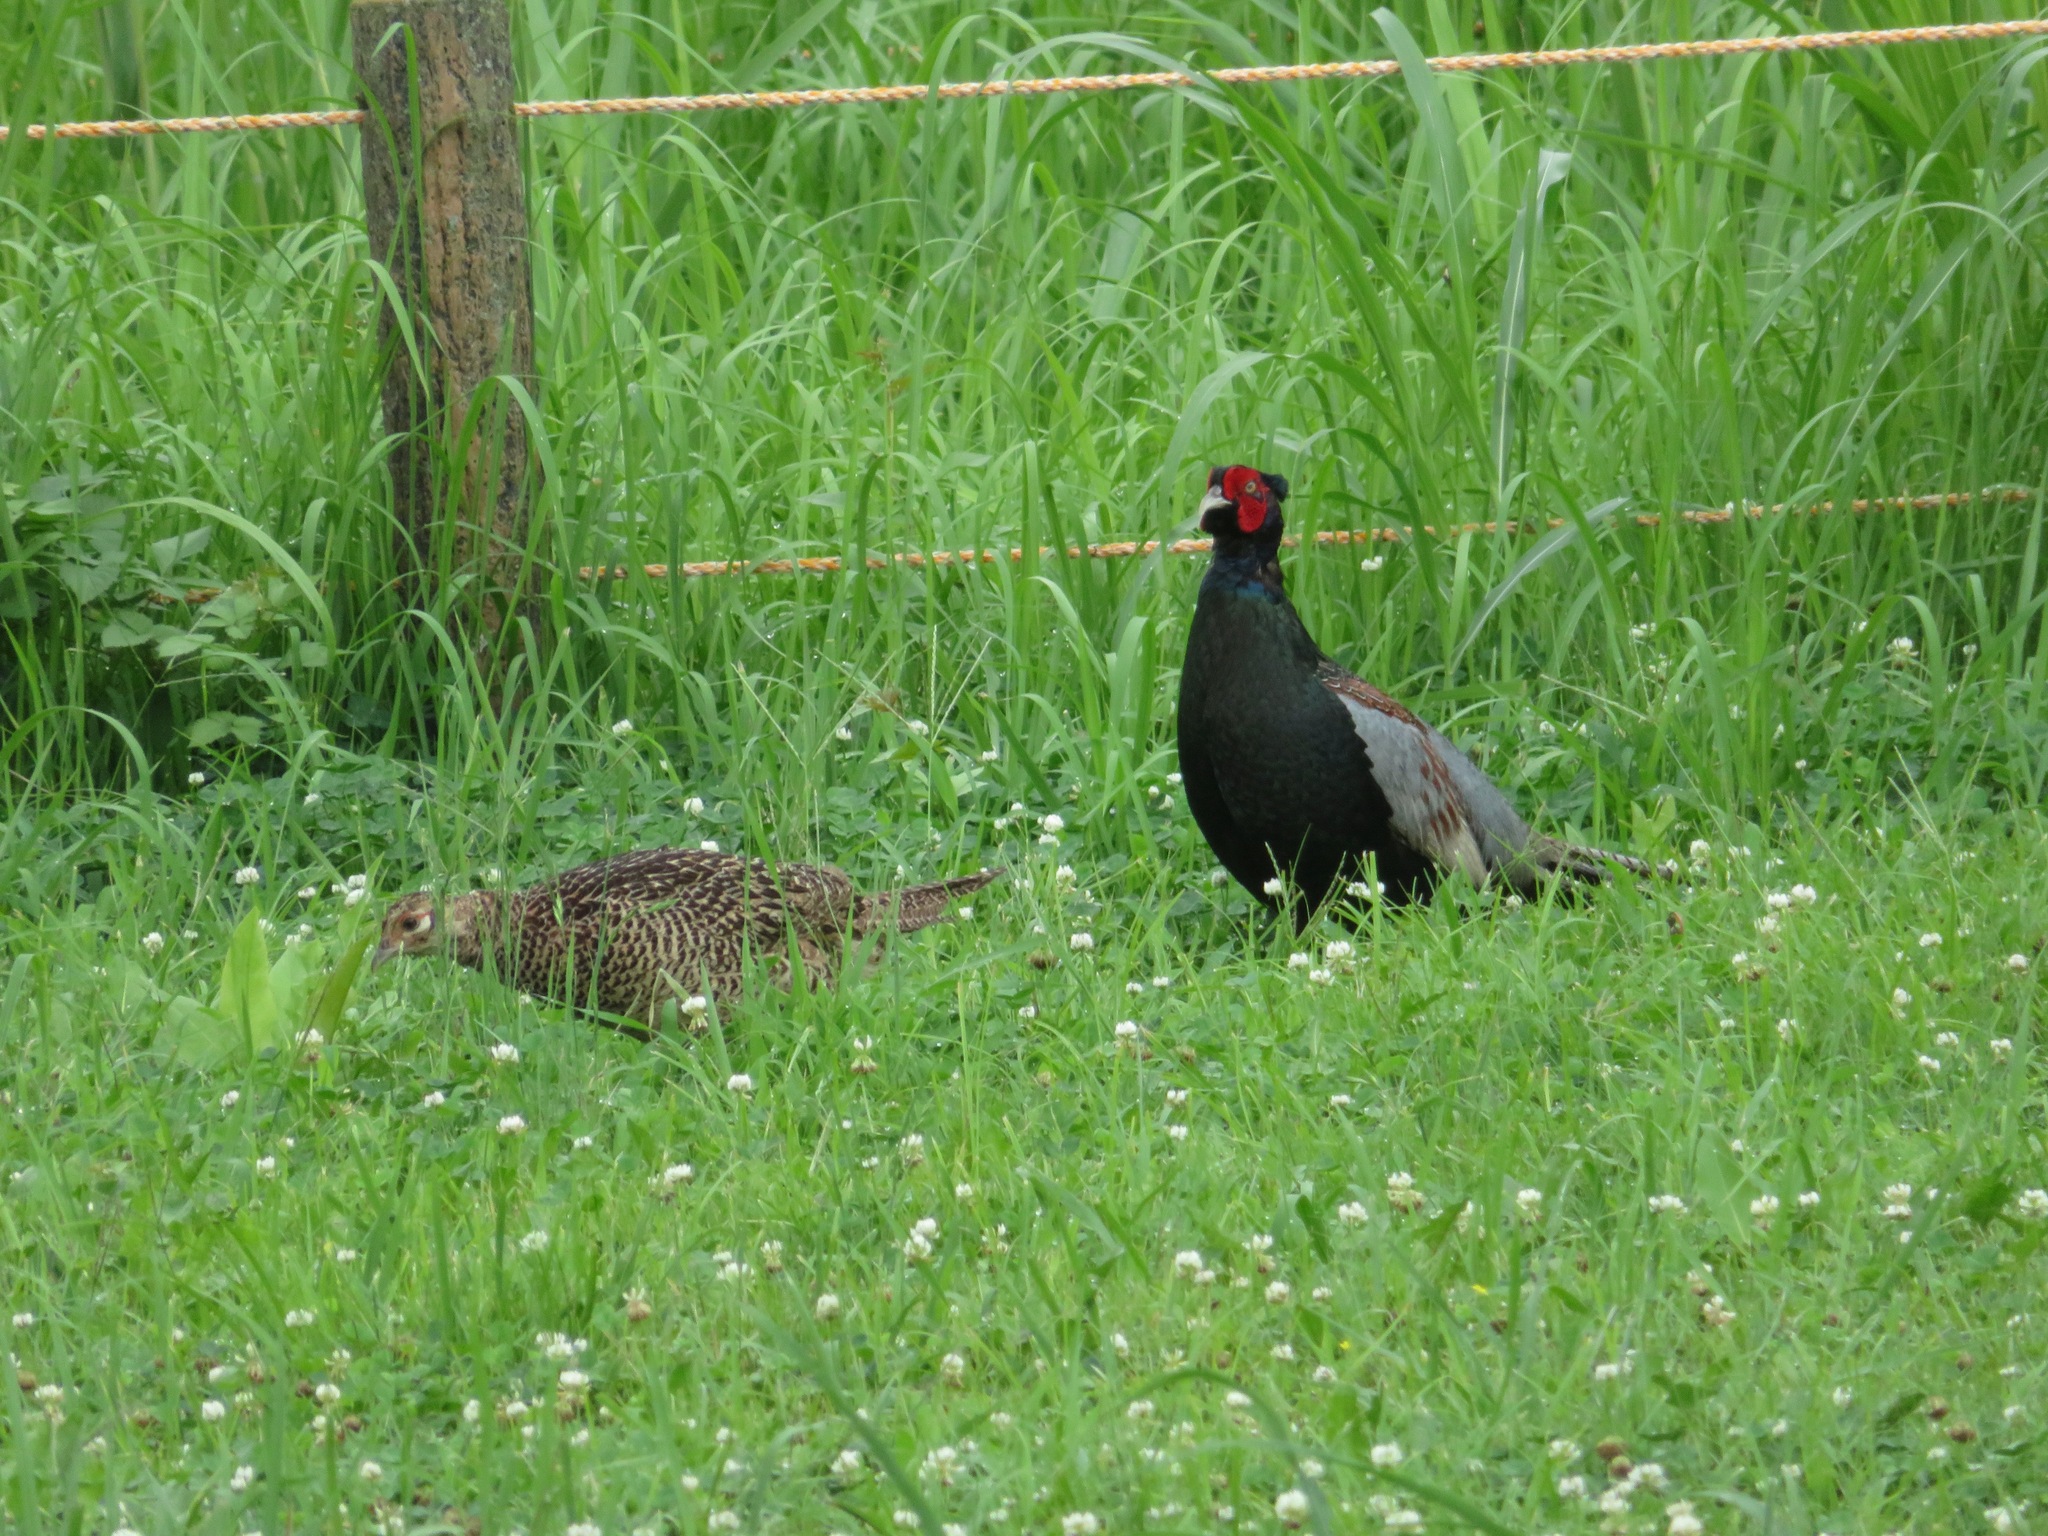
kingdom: Animalia
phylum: Chordata
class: Aves
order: Galliformes
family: Phasianidae
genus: Phasianus
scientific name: Phasianus versicolor
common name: Green pheasant
